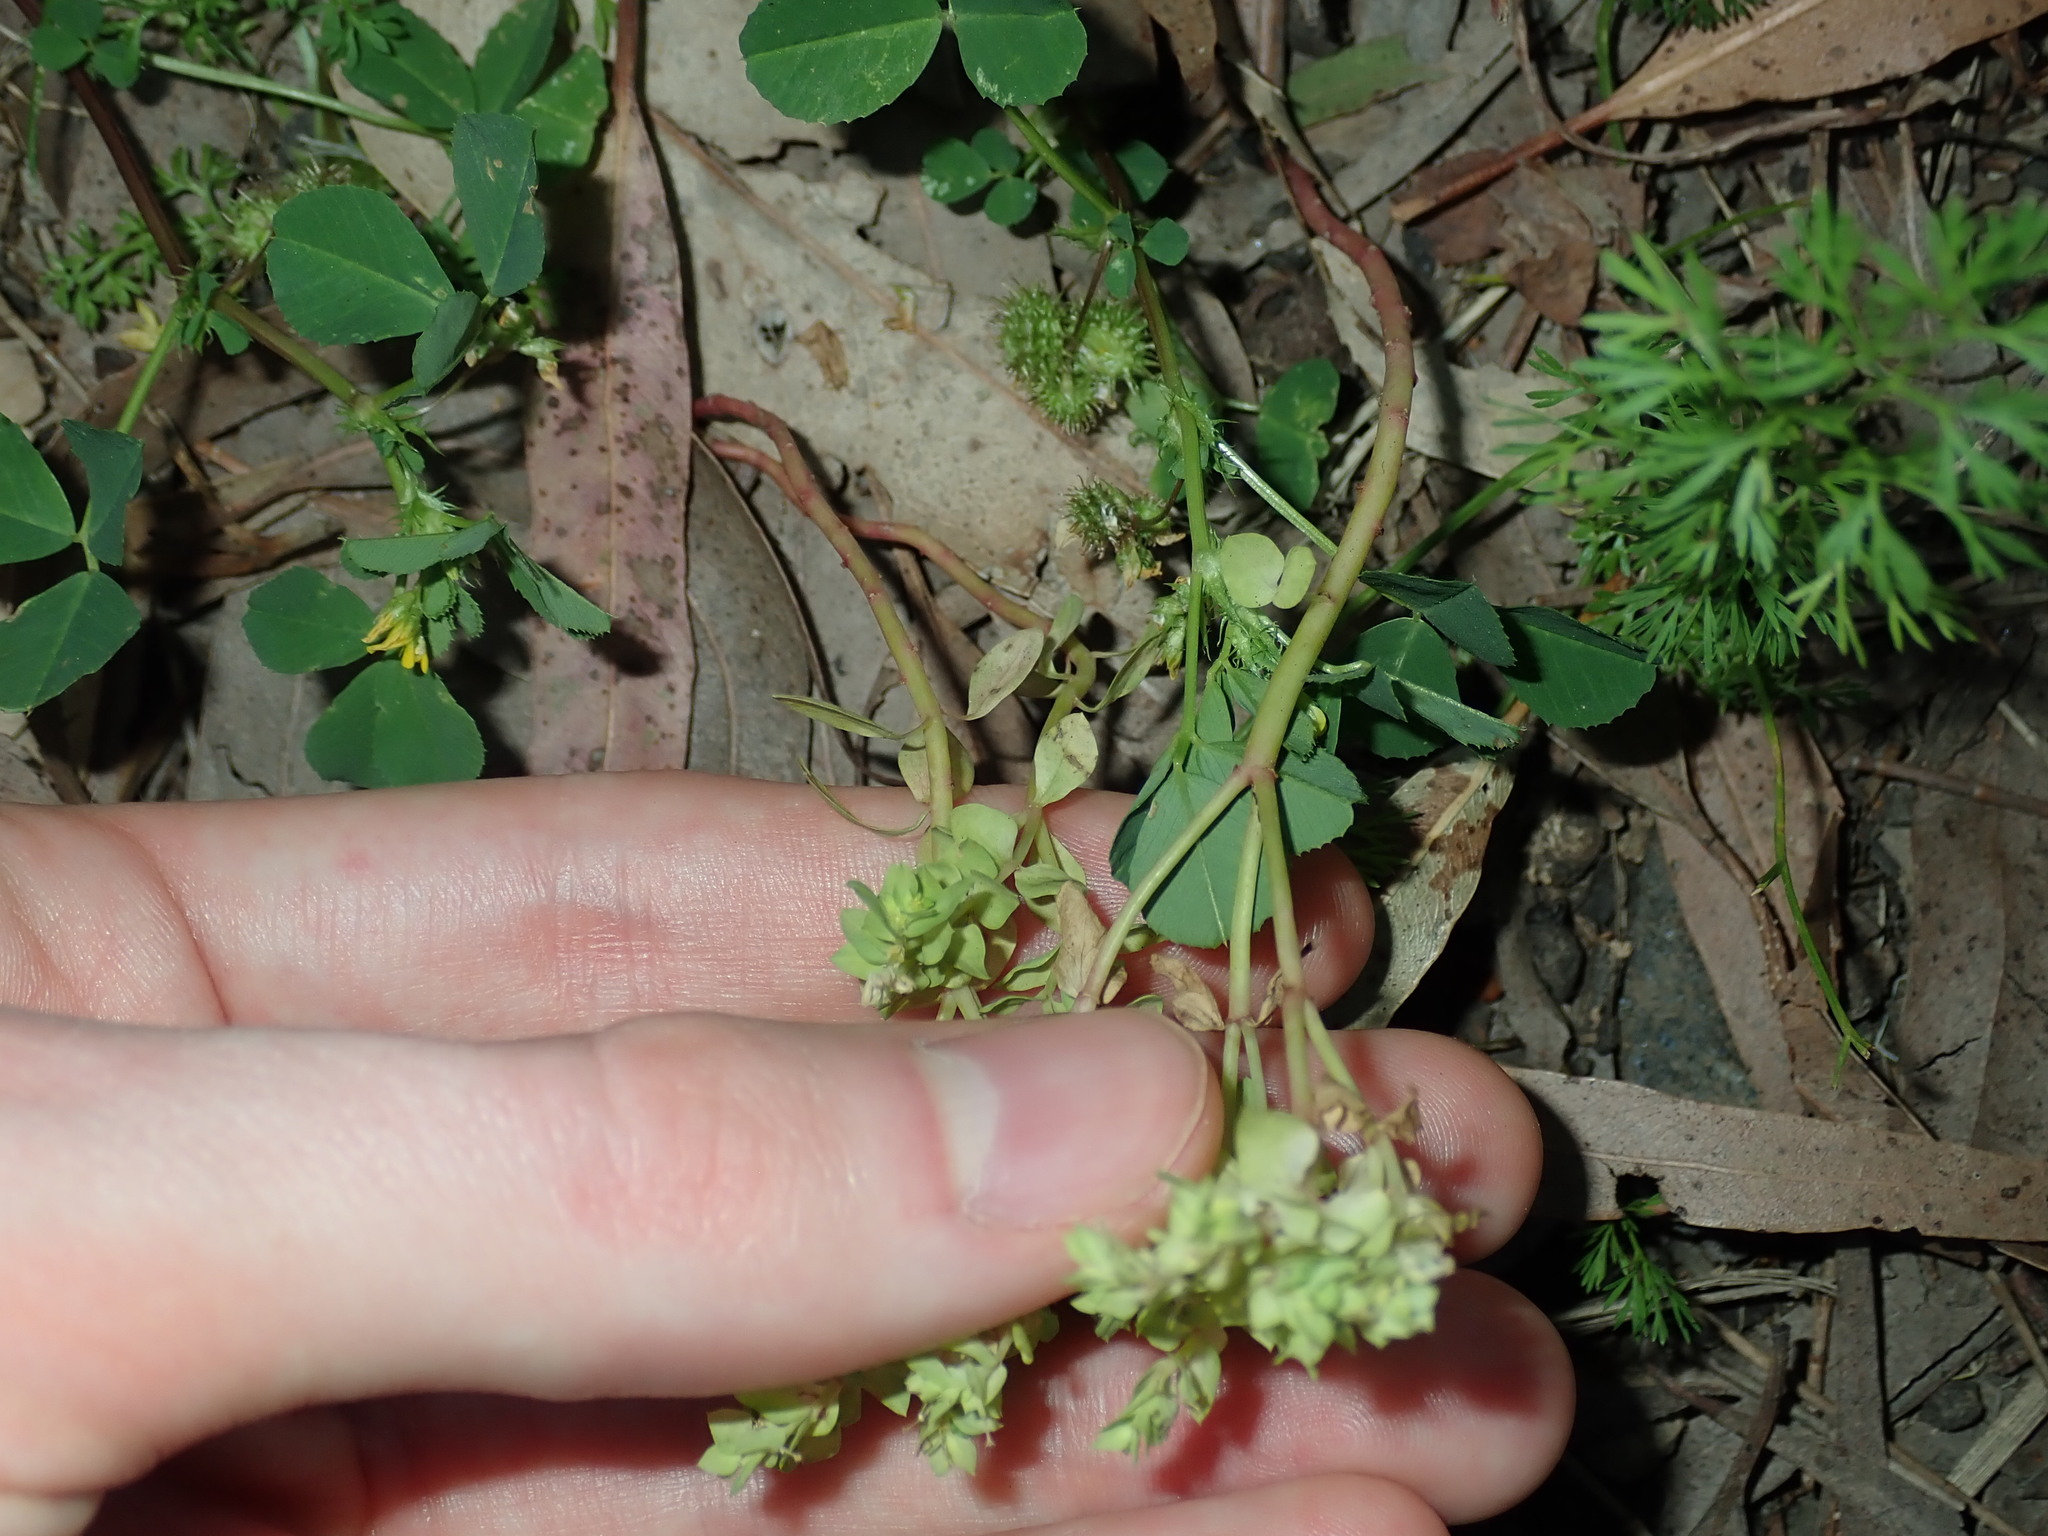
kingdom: Plantae
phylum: Tracheophyta
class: Magnoliopsida
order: Malpighiales
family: Euphorbiaceae
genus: Euphorbia
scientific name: Euphorbia peplus
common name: Petty spurge
